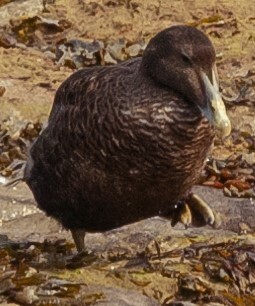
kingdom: Animalia
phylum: Chordata
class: Aves
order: Anseriformes
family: Anatidae
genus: Somateria
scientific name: Somateria mollissima
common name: Common eider
